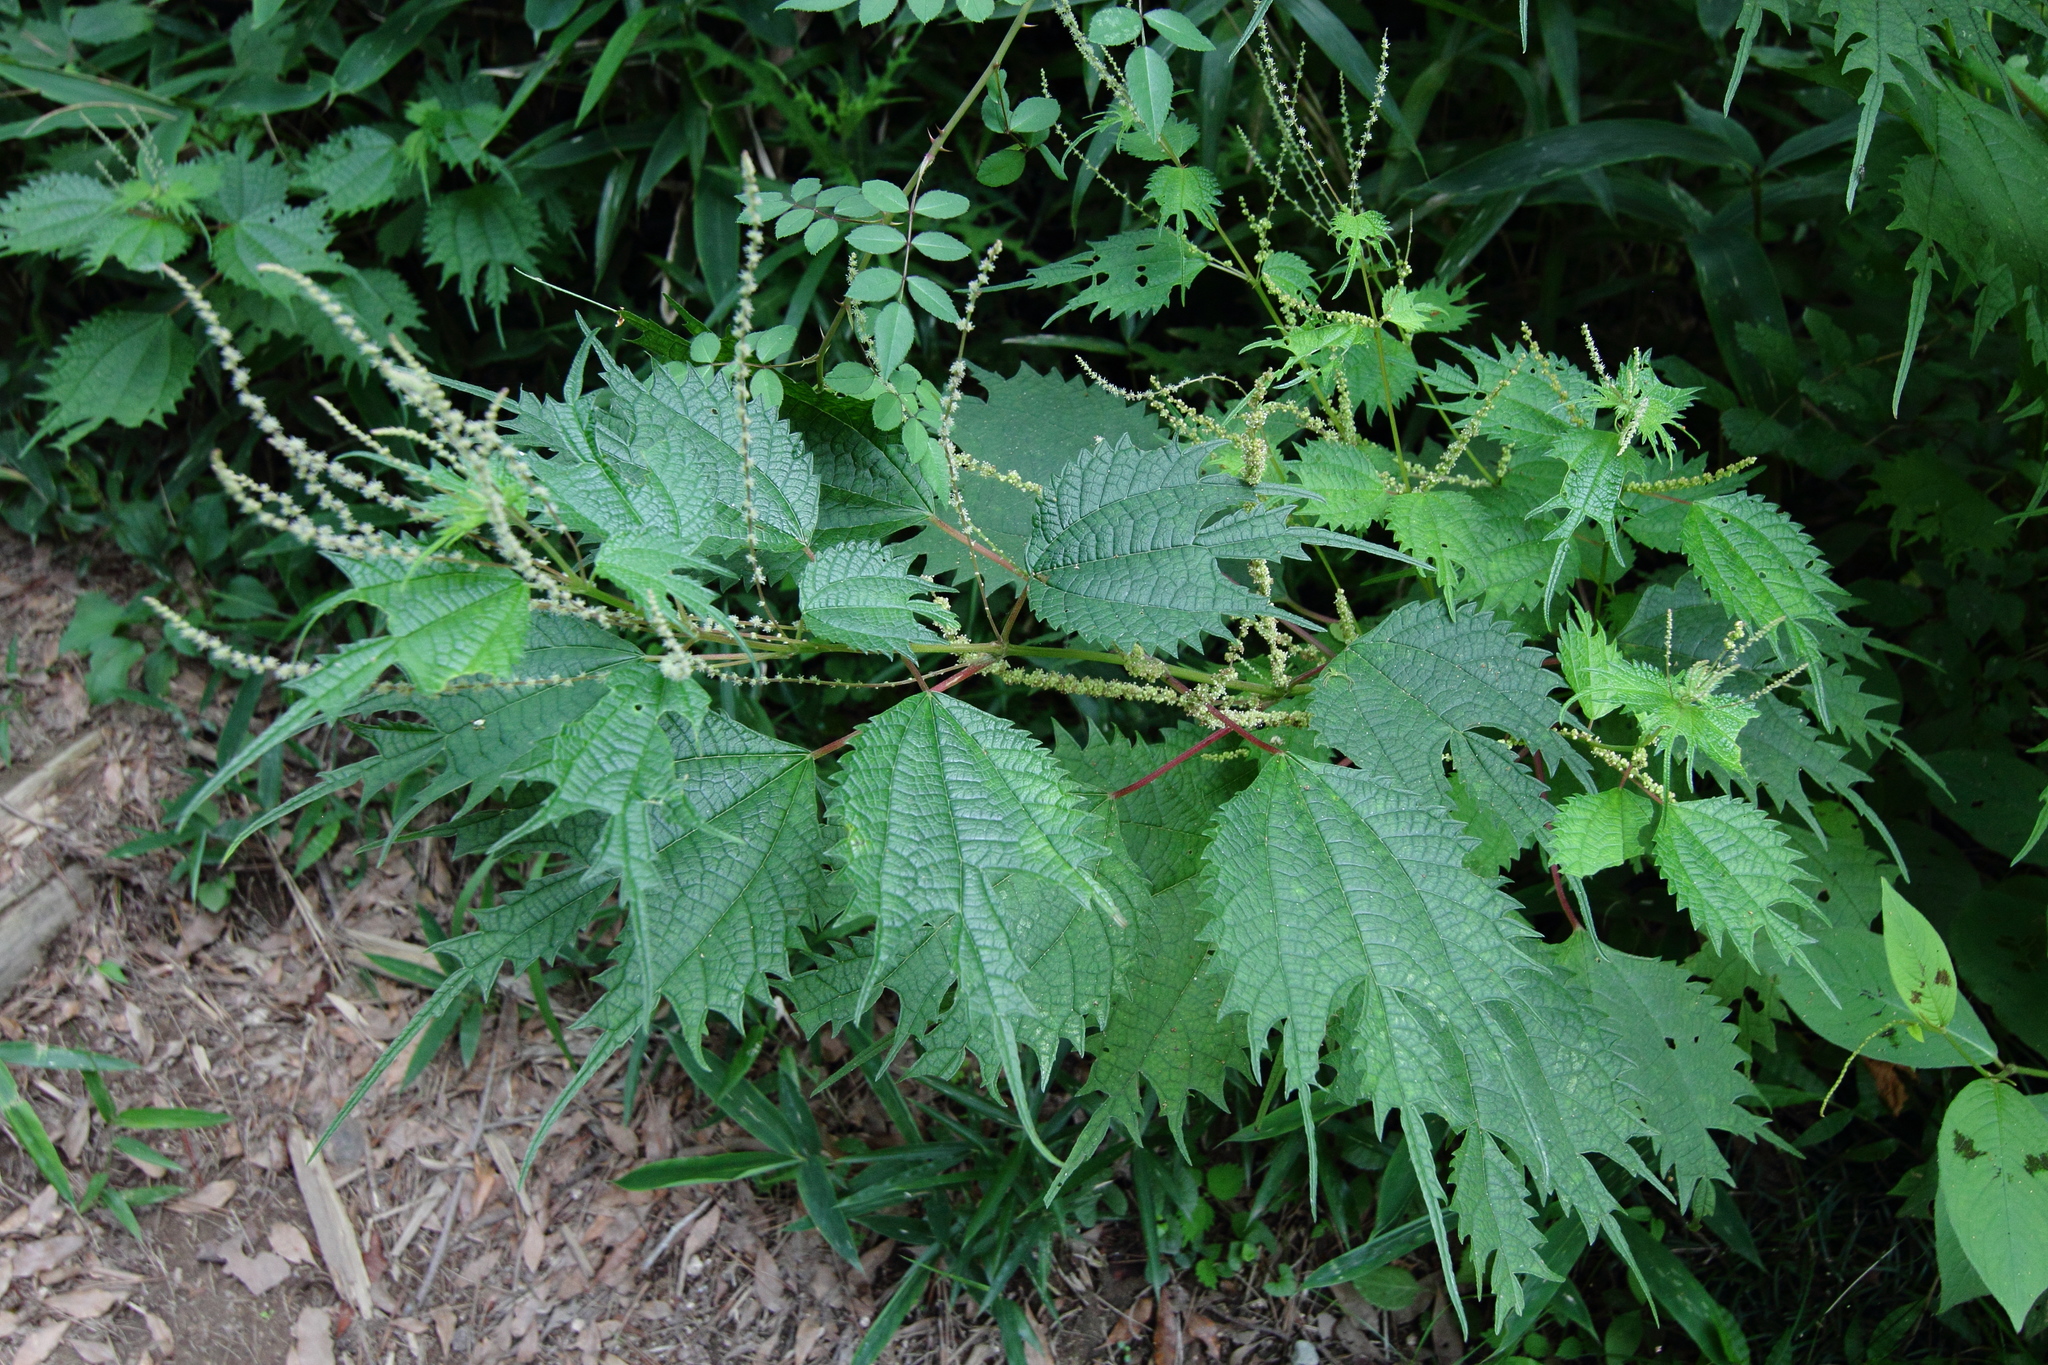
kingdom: Plantae
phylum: Tracheophyta
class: Magnoliopsida
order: Rosales
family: Urticaceae
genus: Boehmeria
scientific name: Boehmeria japonica
